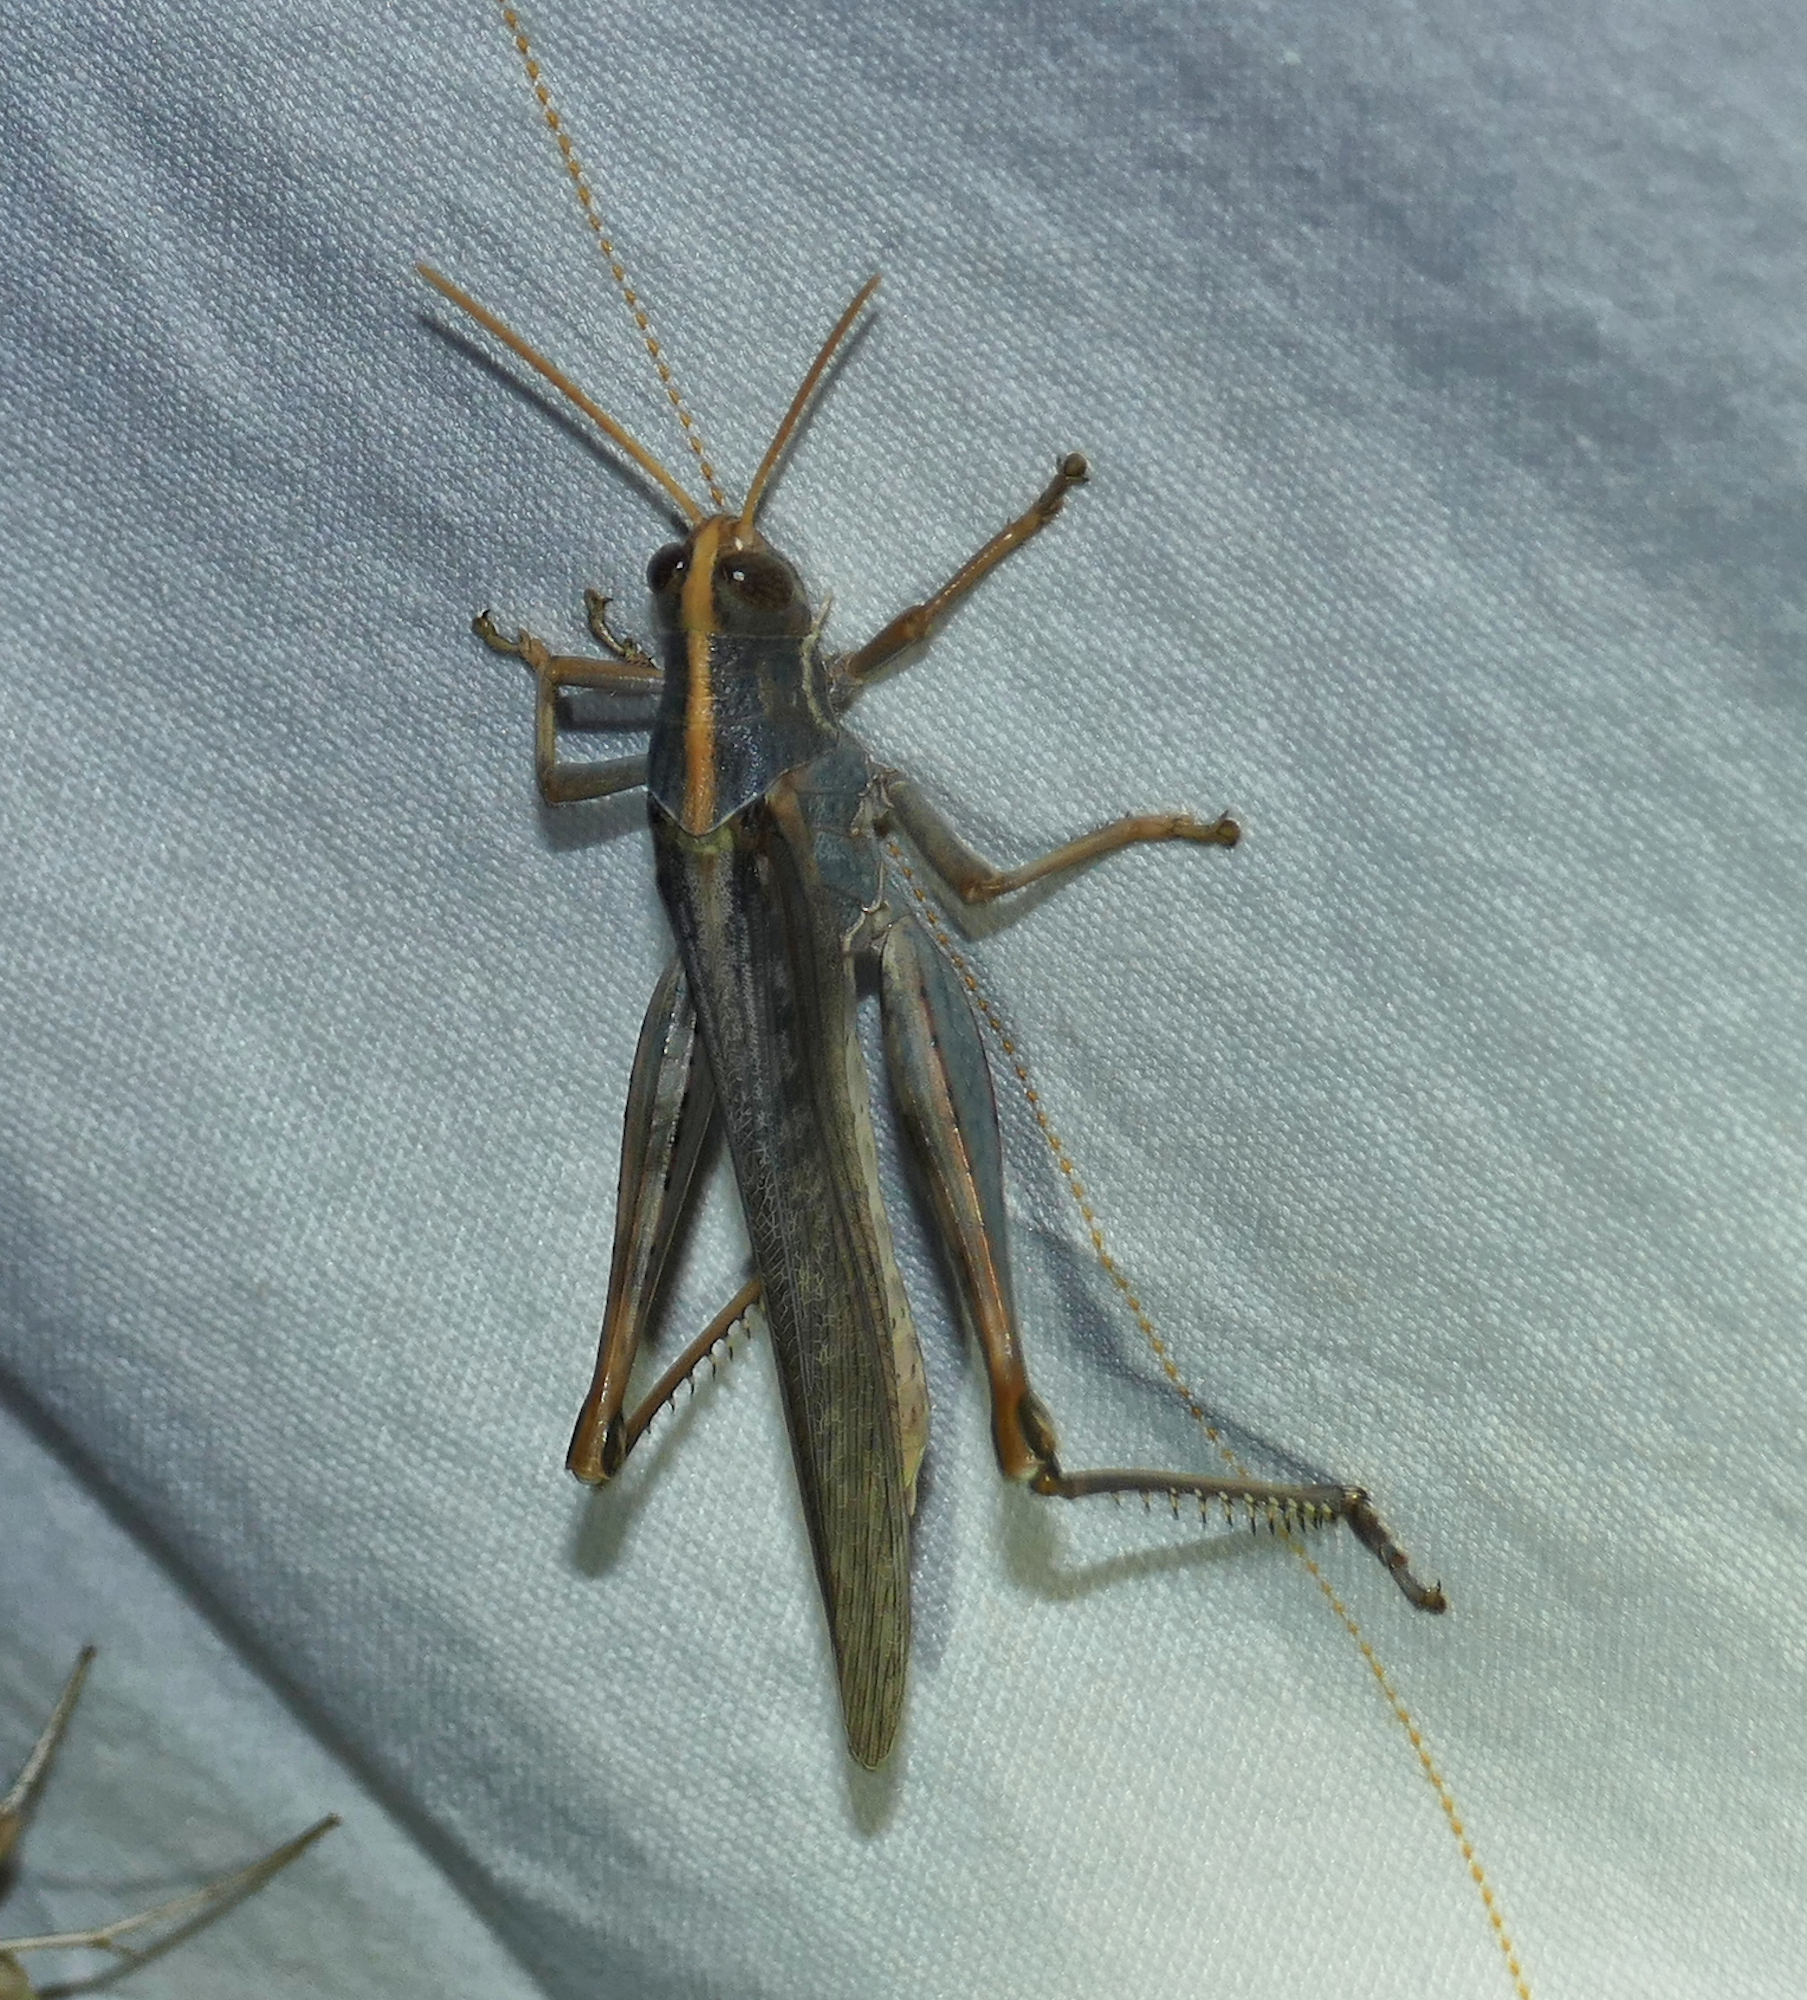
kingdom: Animalia
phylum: Arthropoda
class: Insecta
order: Orthoptera
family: Acrididae
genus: Schistocerca
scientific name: Schistocerca nitens
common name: Vagrant grasshopper
